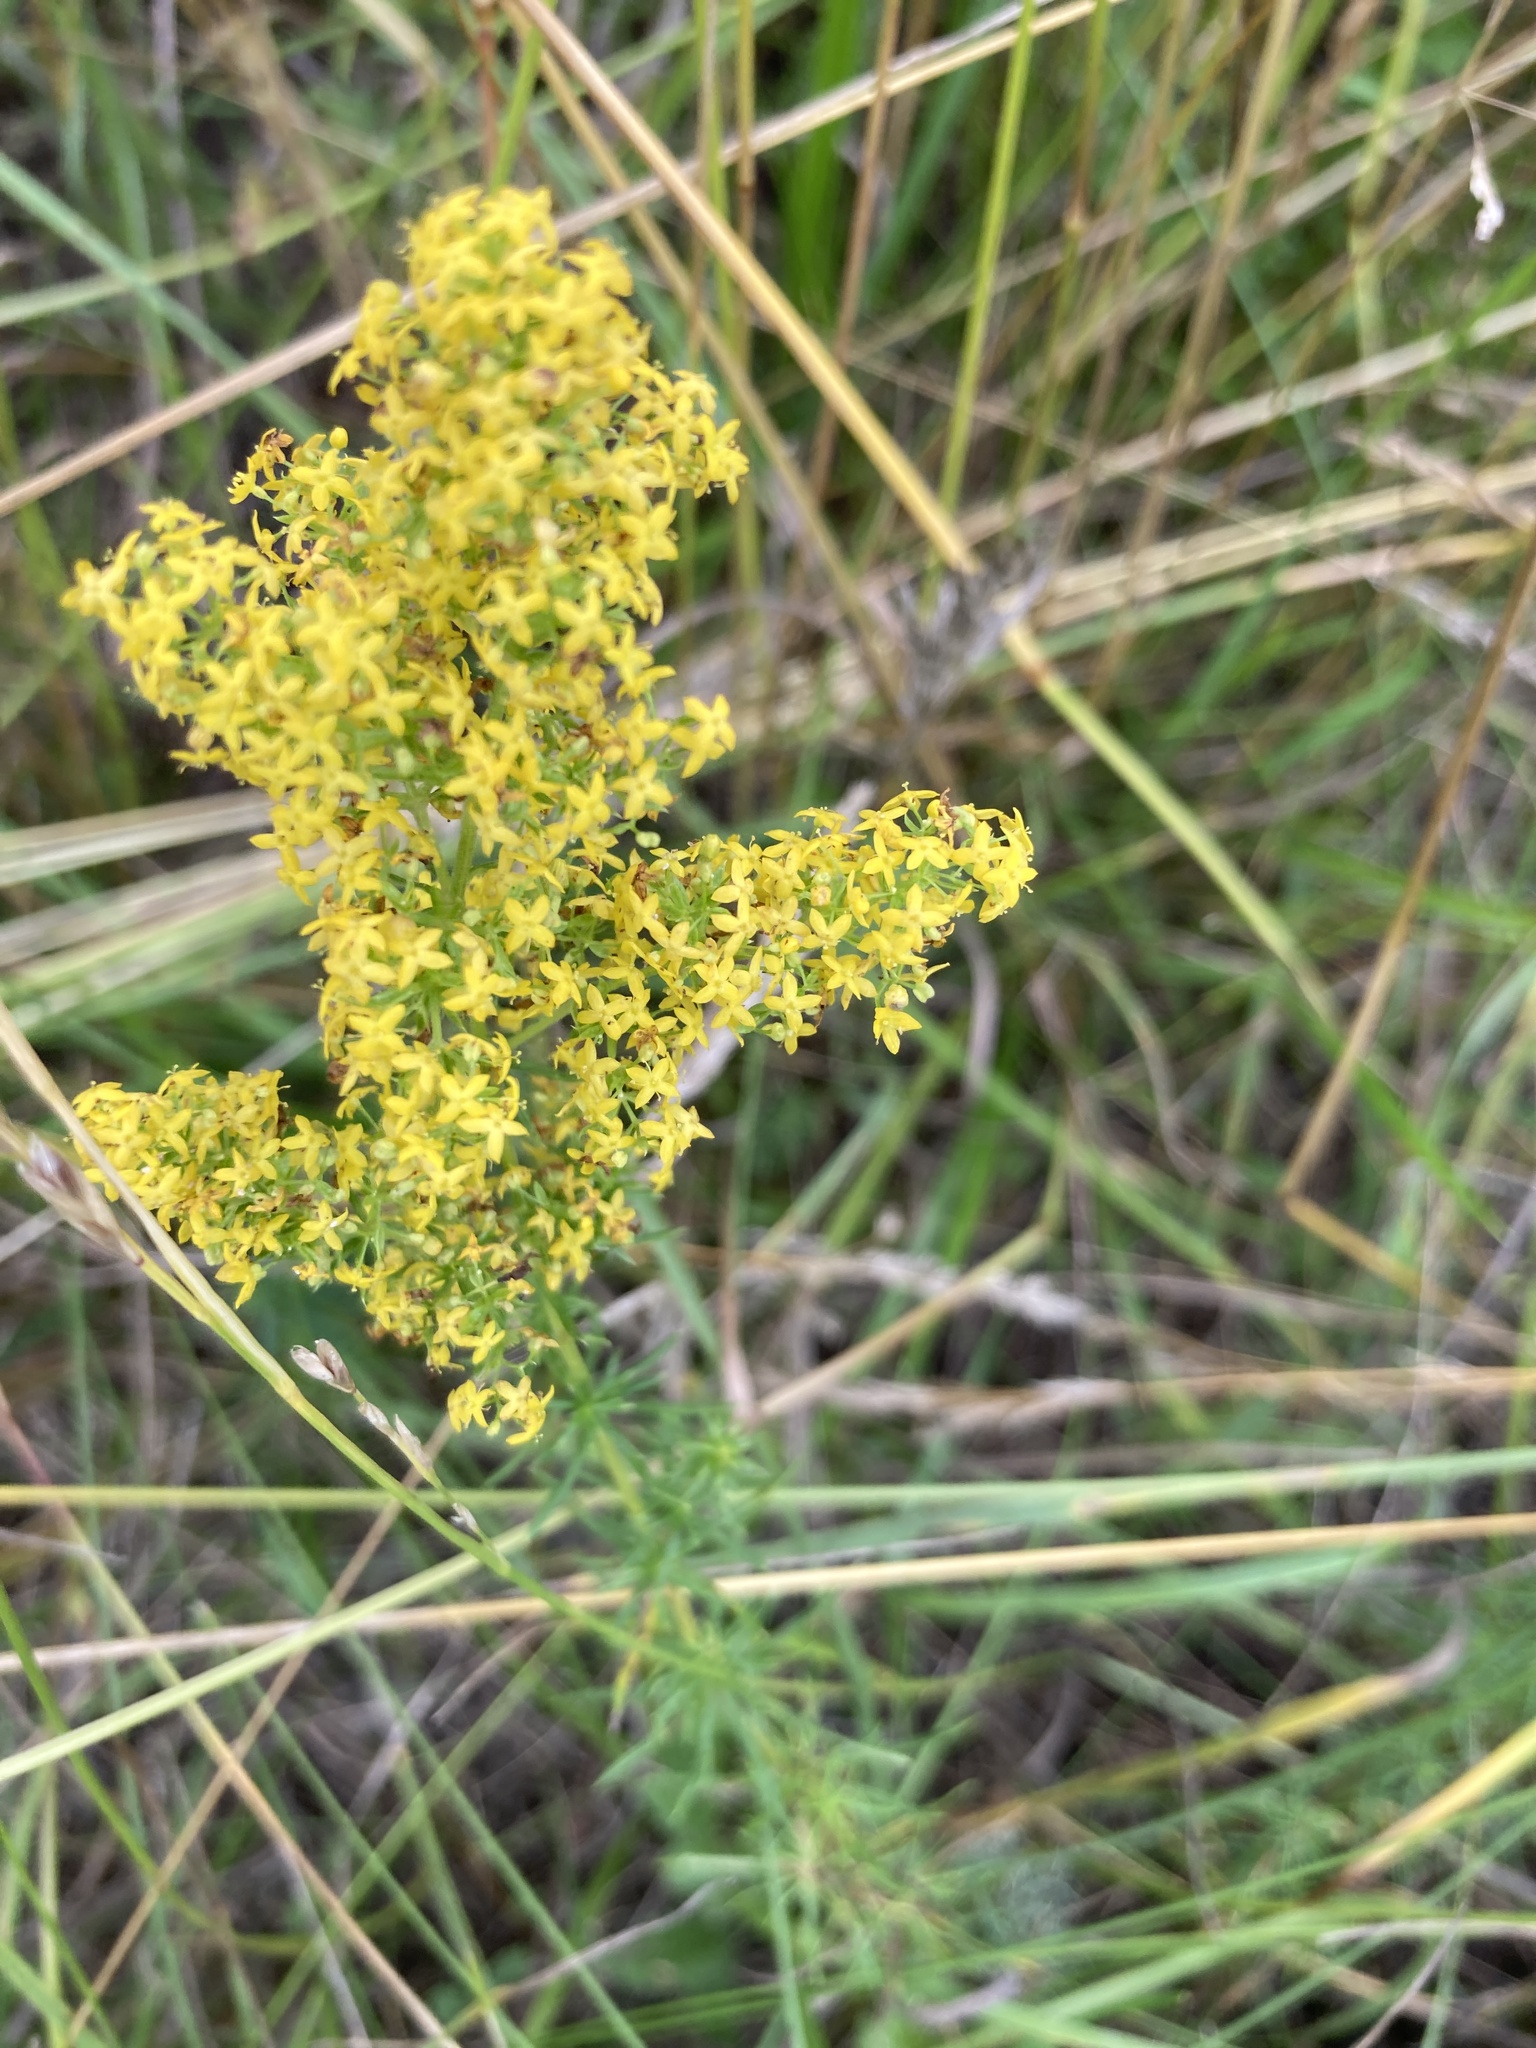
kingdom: Plantae
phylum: Tracheophyta
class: Magnoliopsida
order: Gentianales
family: Rubiaceae
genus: Galium
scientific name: Galium verum
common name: Lady's bedstraw
